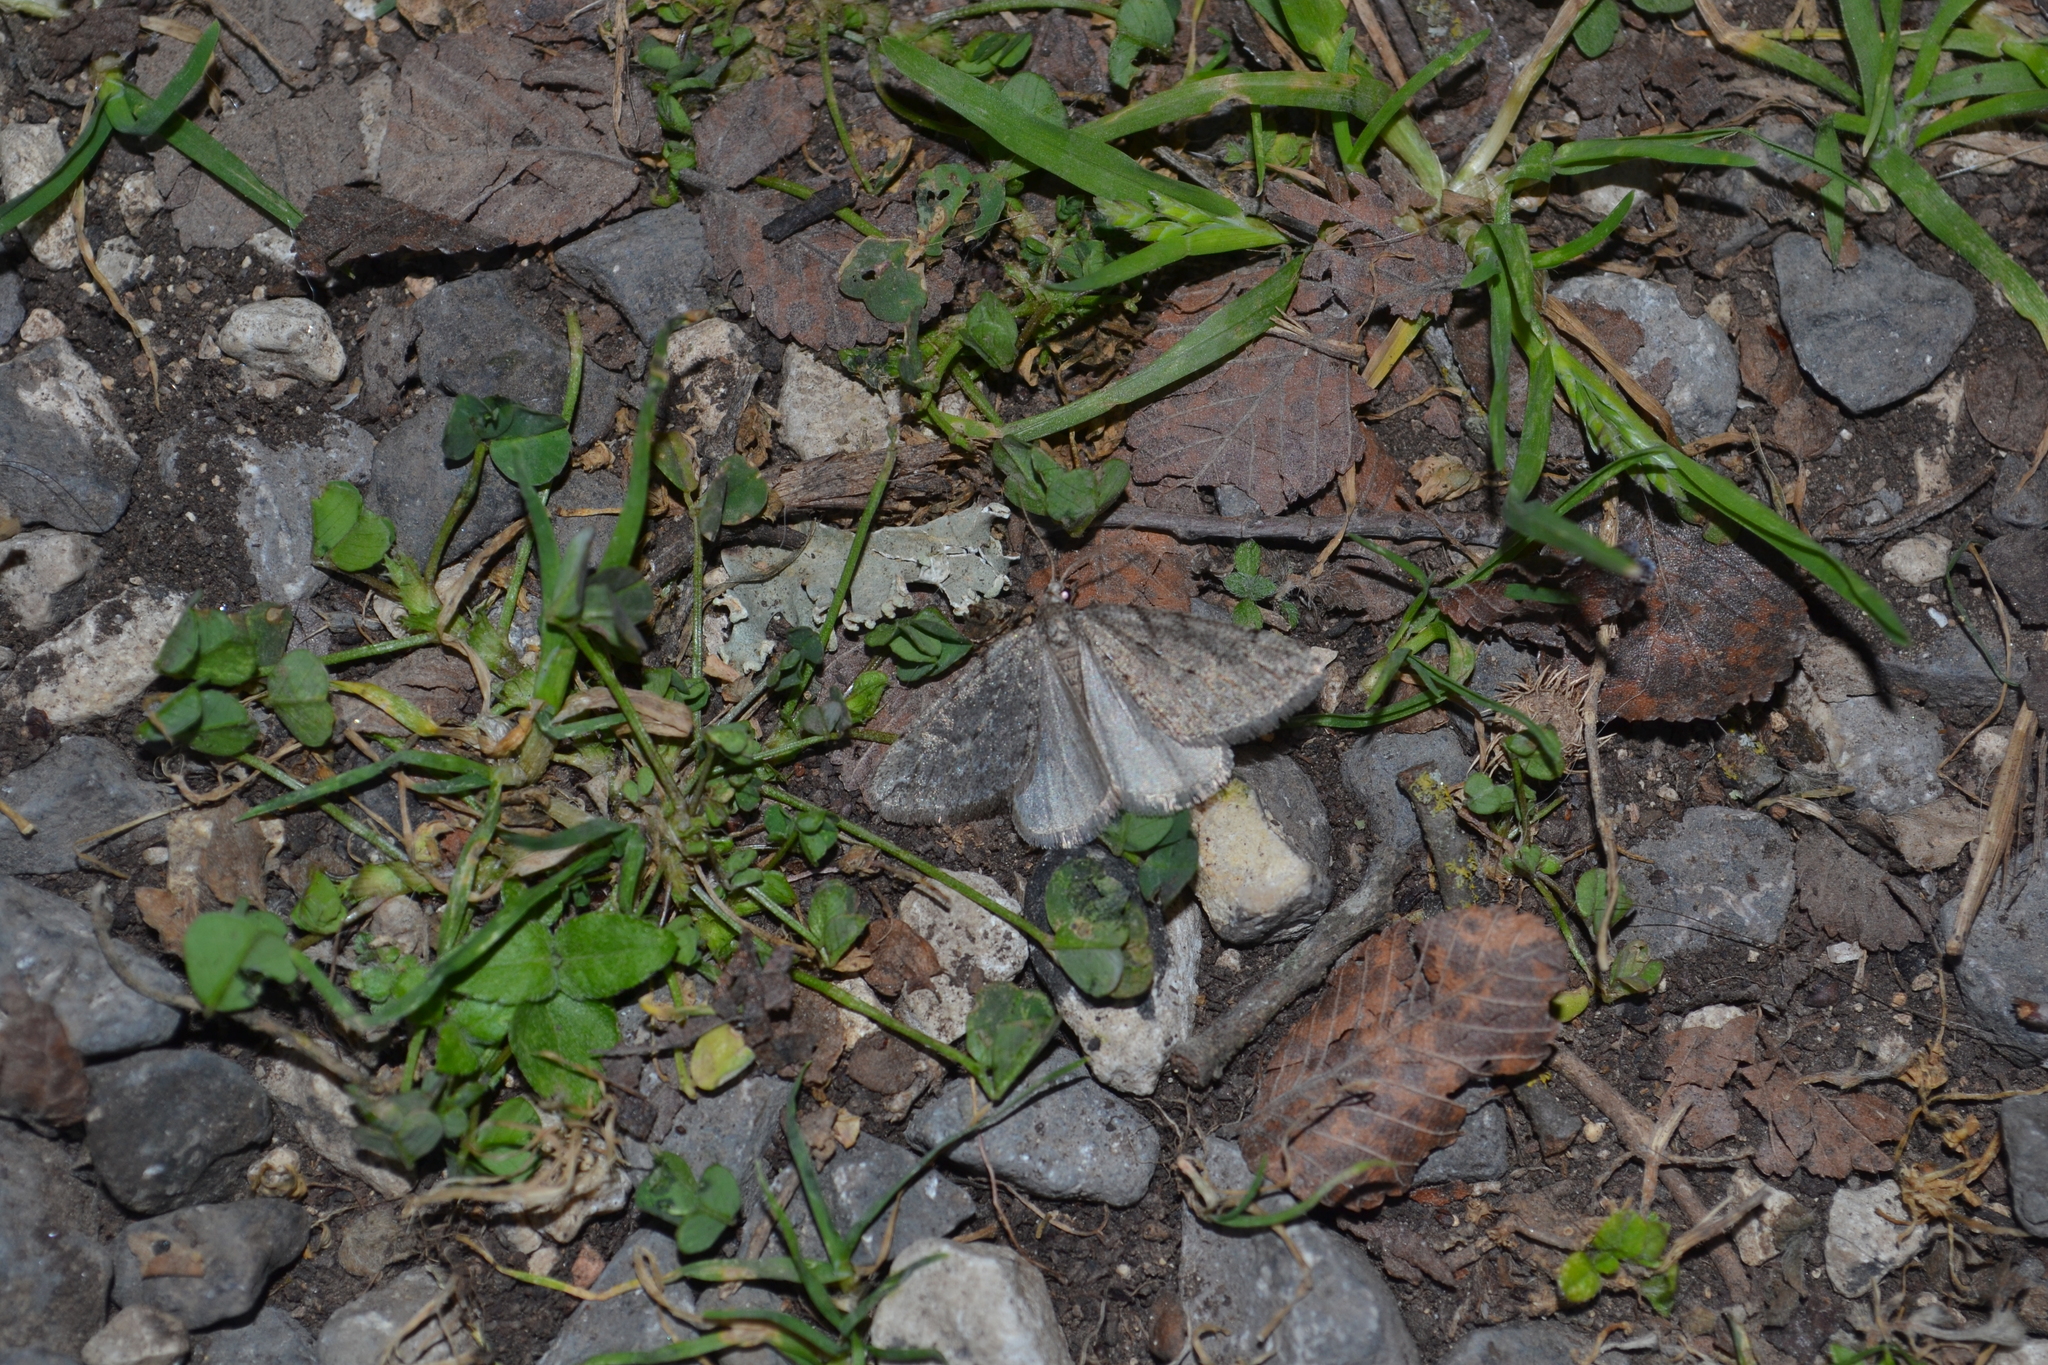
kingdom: Animalia
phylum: Arthropoda
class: Insecta
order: Lepidoptera
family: Geometridae
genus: Paleacrita
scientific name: Paleacrita vernata
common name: Spring cankerworm
